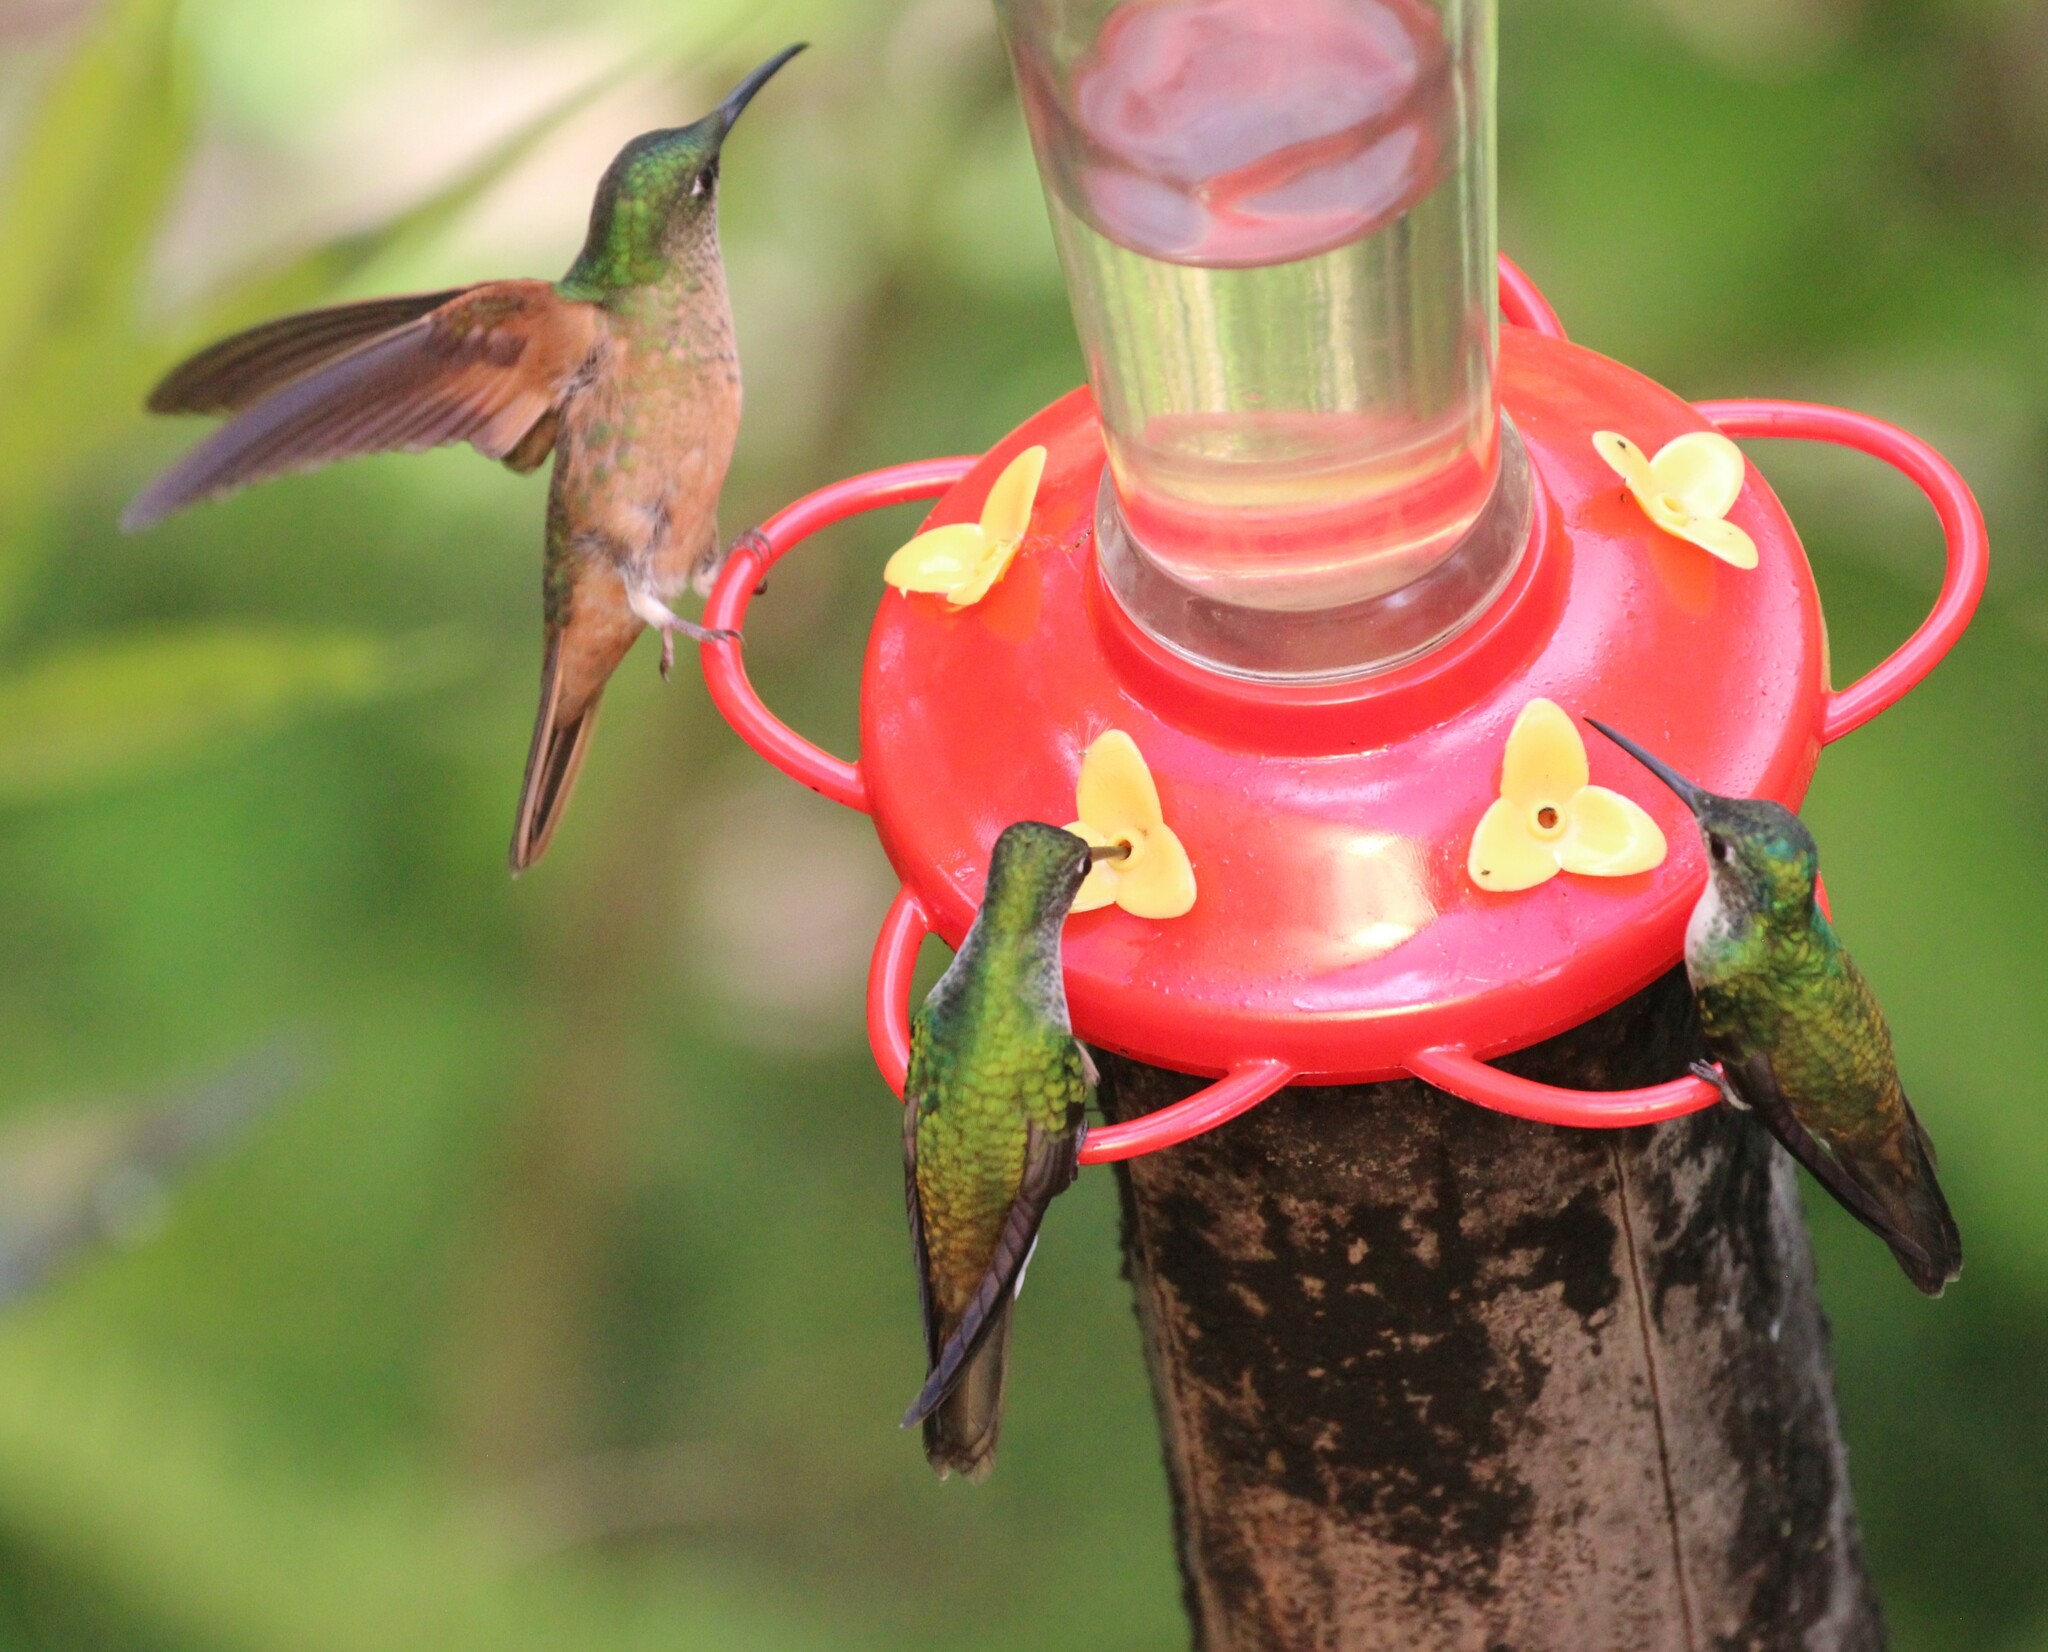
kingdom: Animalia
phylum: Chordata
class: Aves
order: Apodiformes
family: Trochilidae
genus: Heliodoxa
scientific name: Heliodoxa rubinoides
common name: Fawn-breasted brilliant
